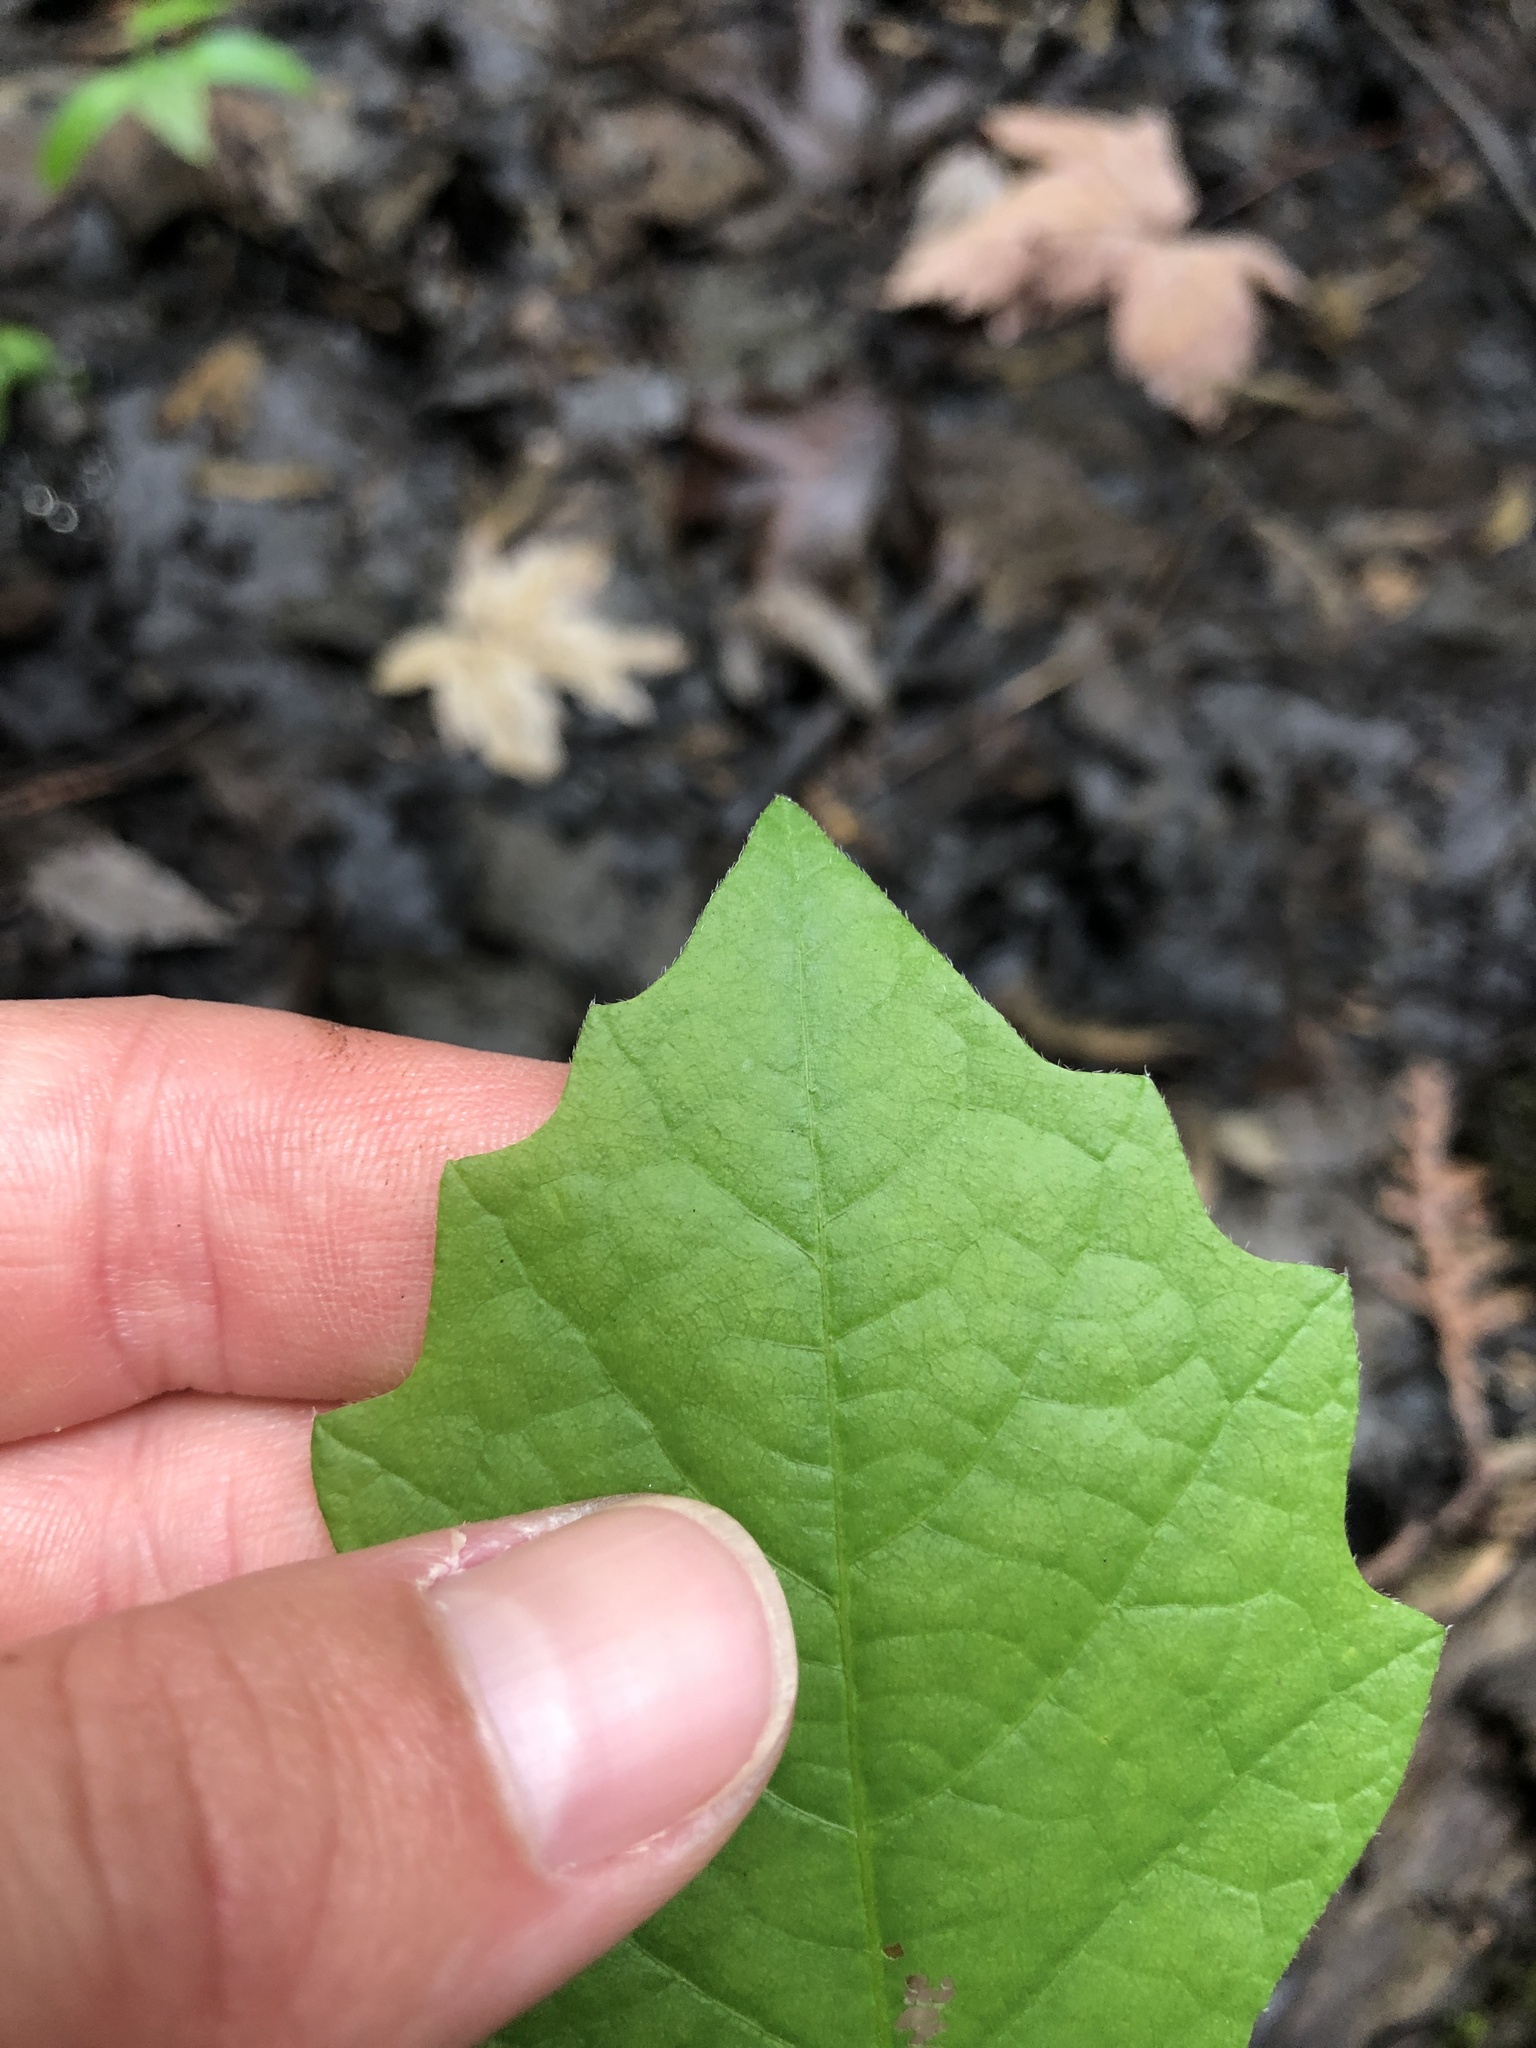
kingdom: Plantae
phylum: Tracheophyta
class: Magnoliopsida
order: Fagales
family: Fagaceae
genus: Quercus
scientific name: Quercus rubra
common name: Red oak
